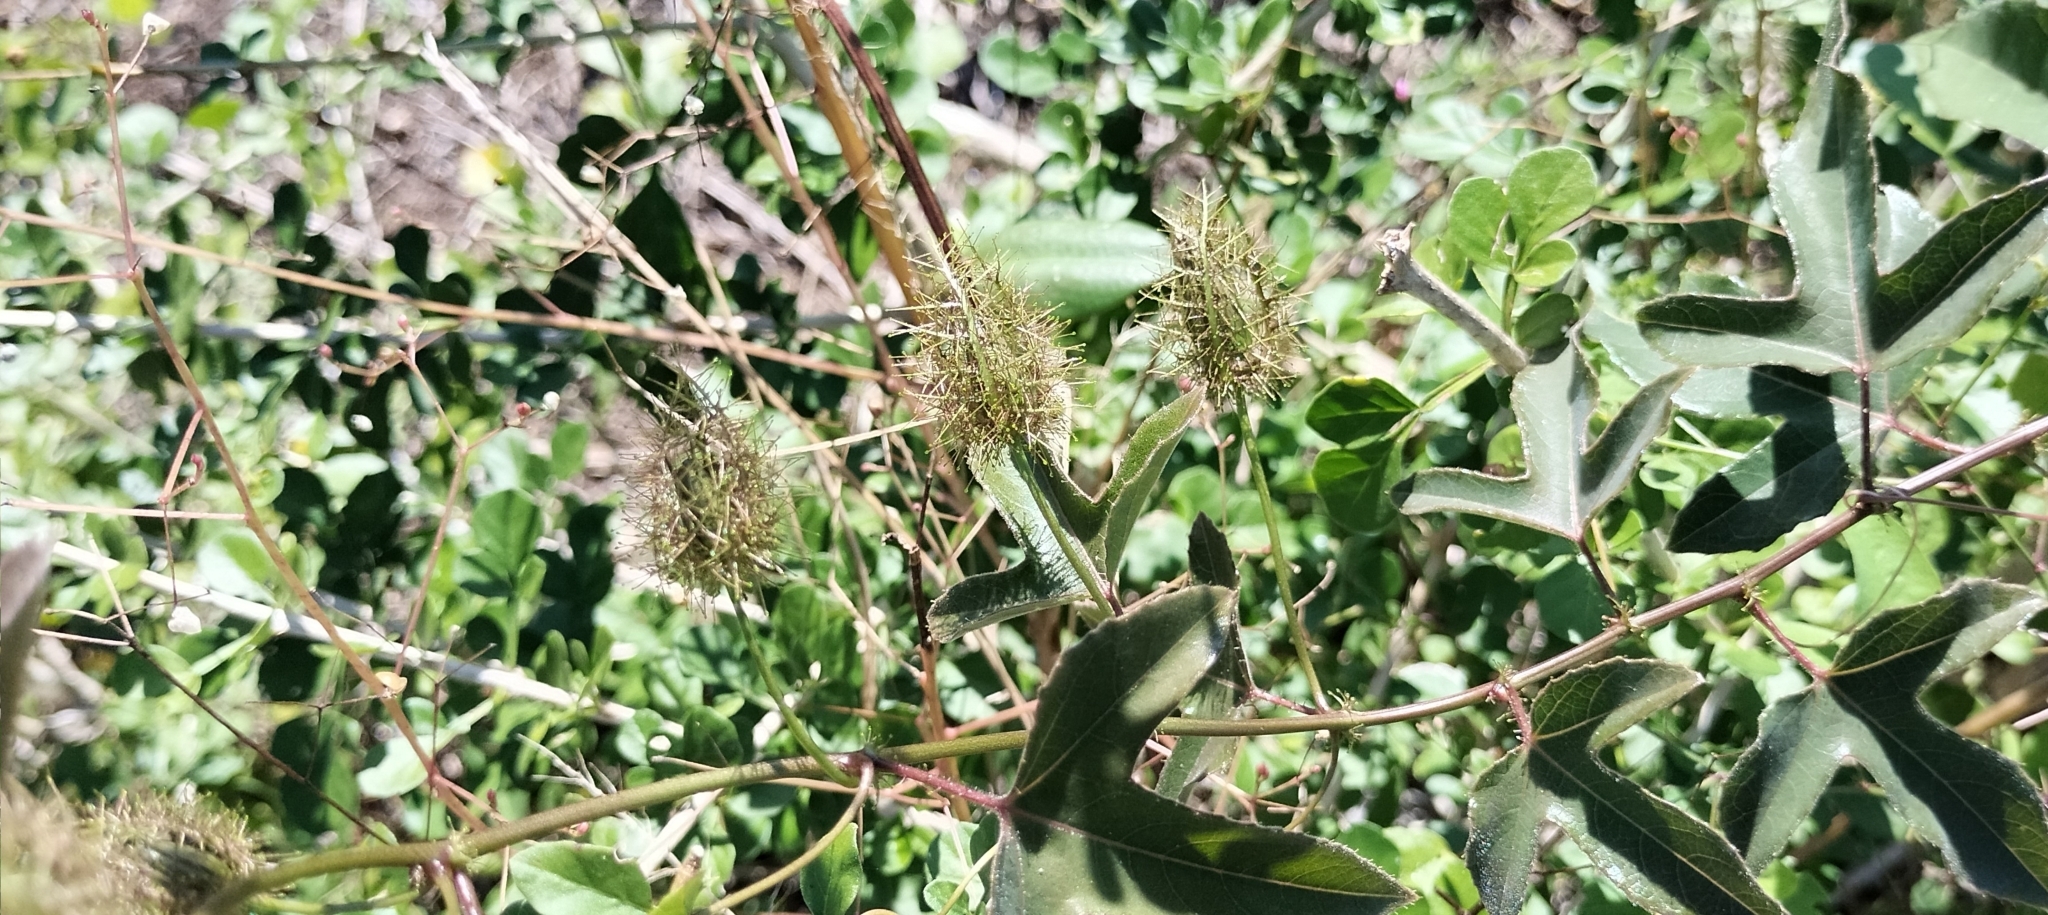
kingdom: Plantae
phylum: Tracheophyta
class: Magnoliopsida
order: Malpighiales
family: Passifloraceae
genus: Passiflora
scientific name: Passiflora ciliata
